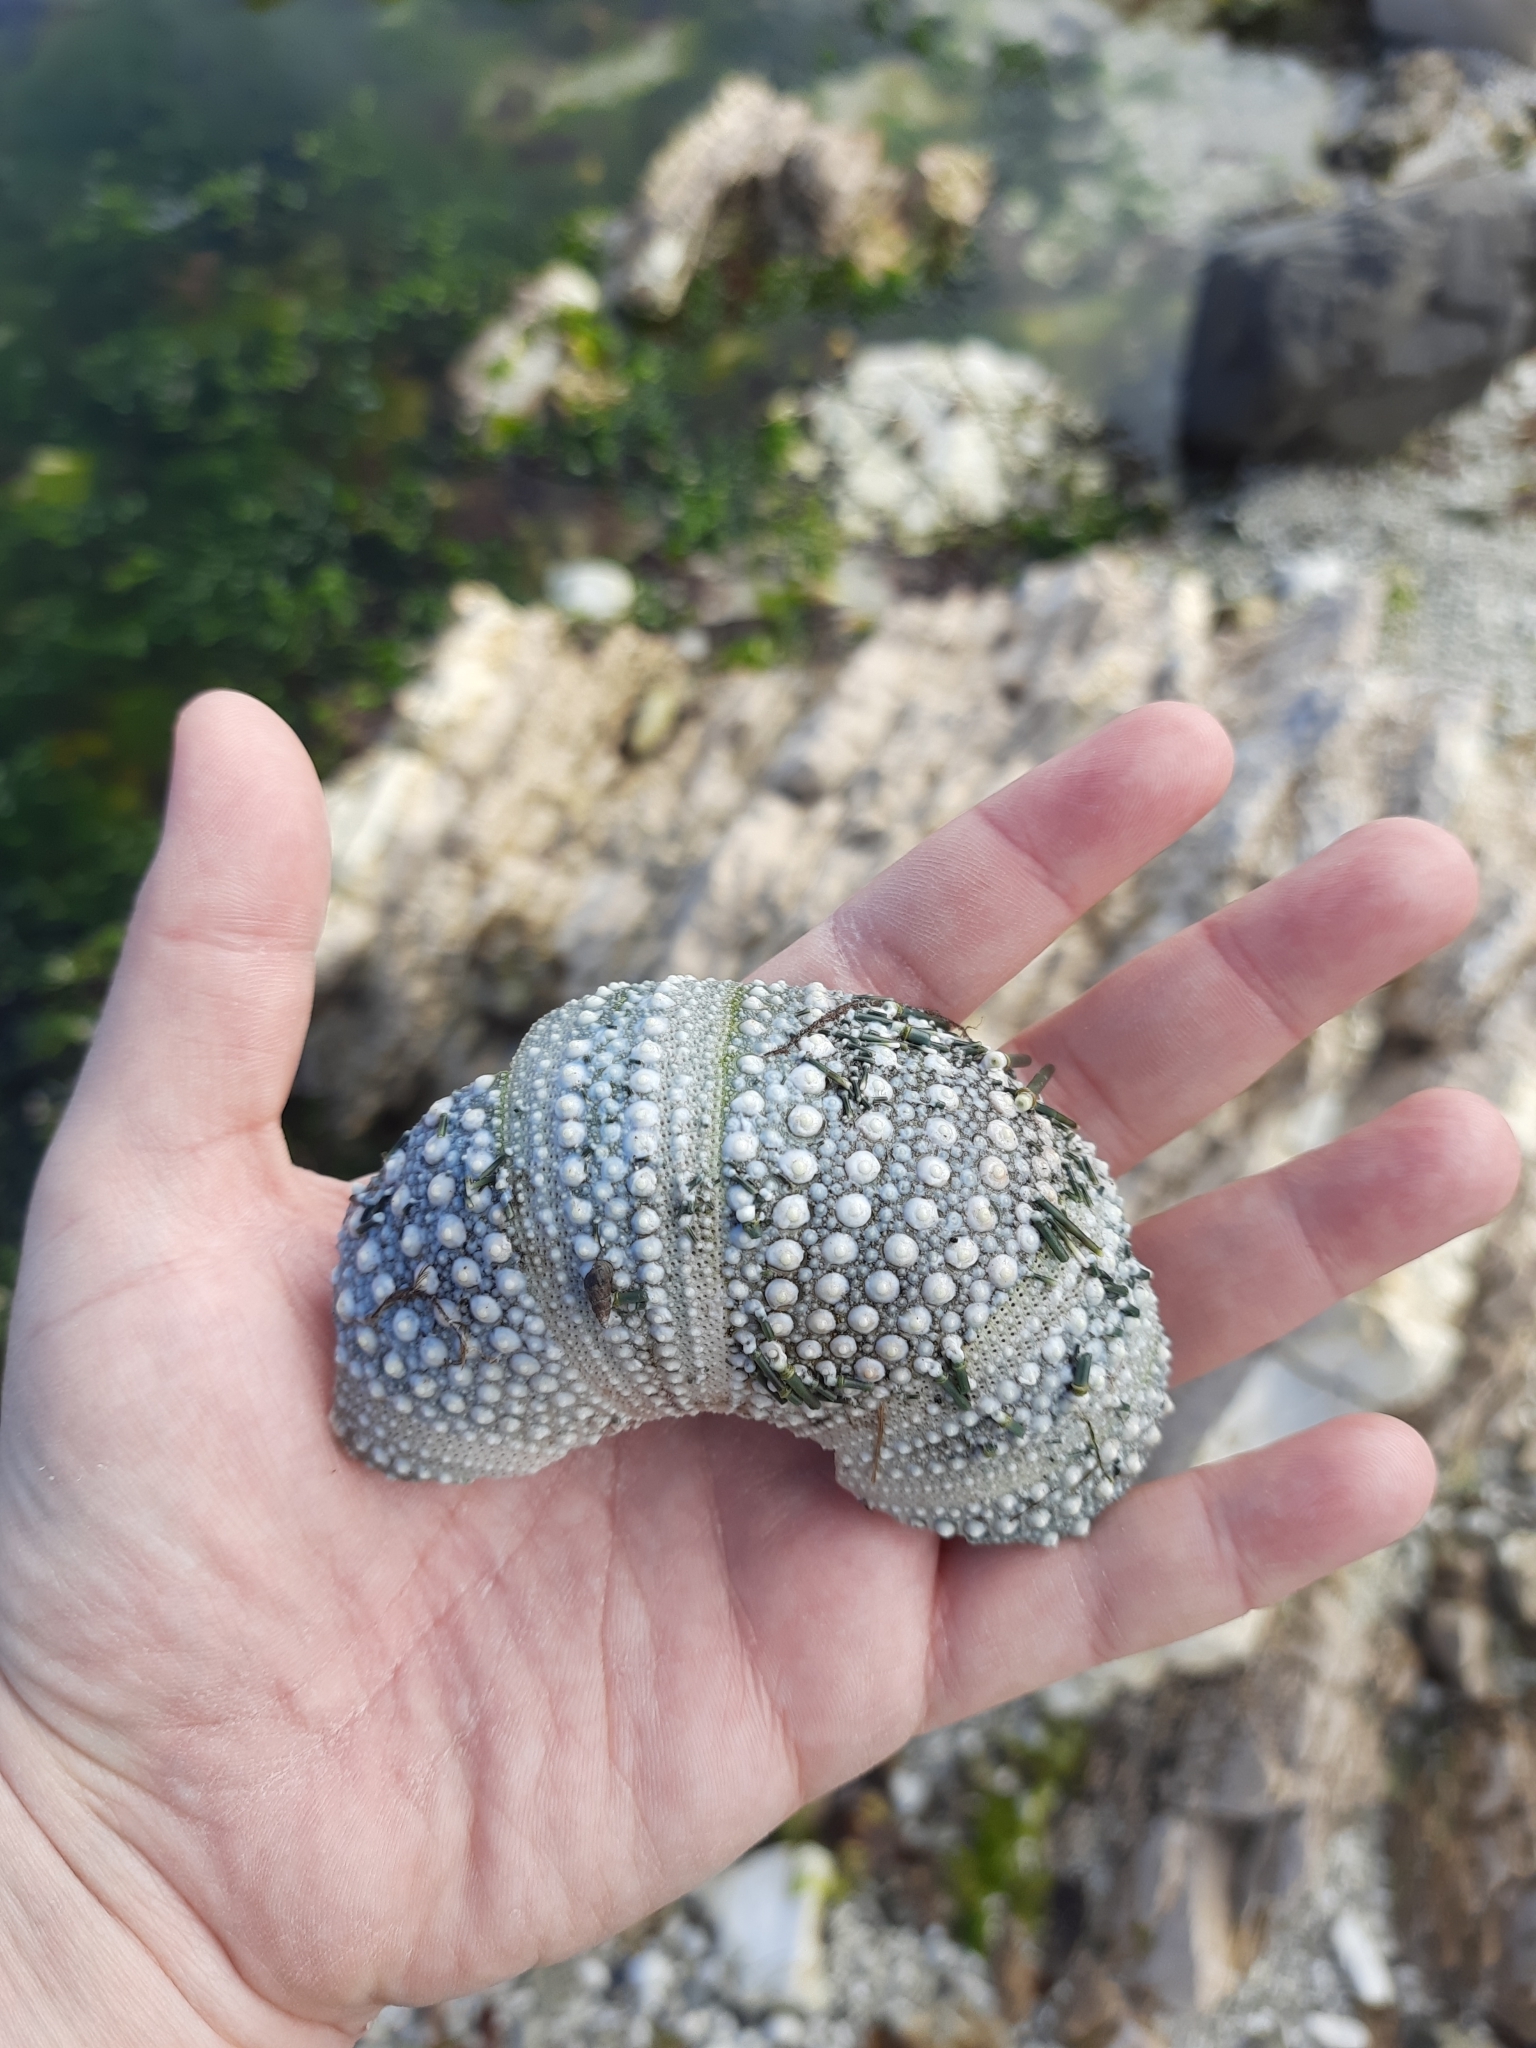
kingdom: Animalia
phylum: Echinodermata
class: Echinoidea
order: Camarodonta
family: Echinometridae
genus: Evechinus
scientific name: Evechinus chloroticus
